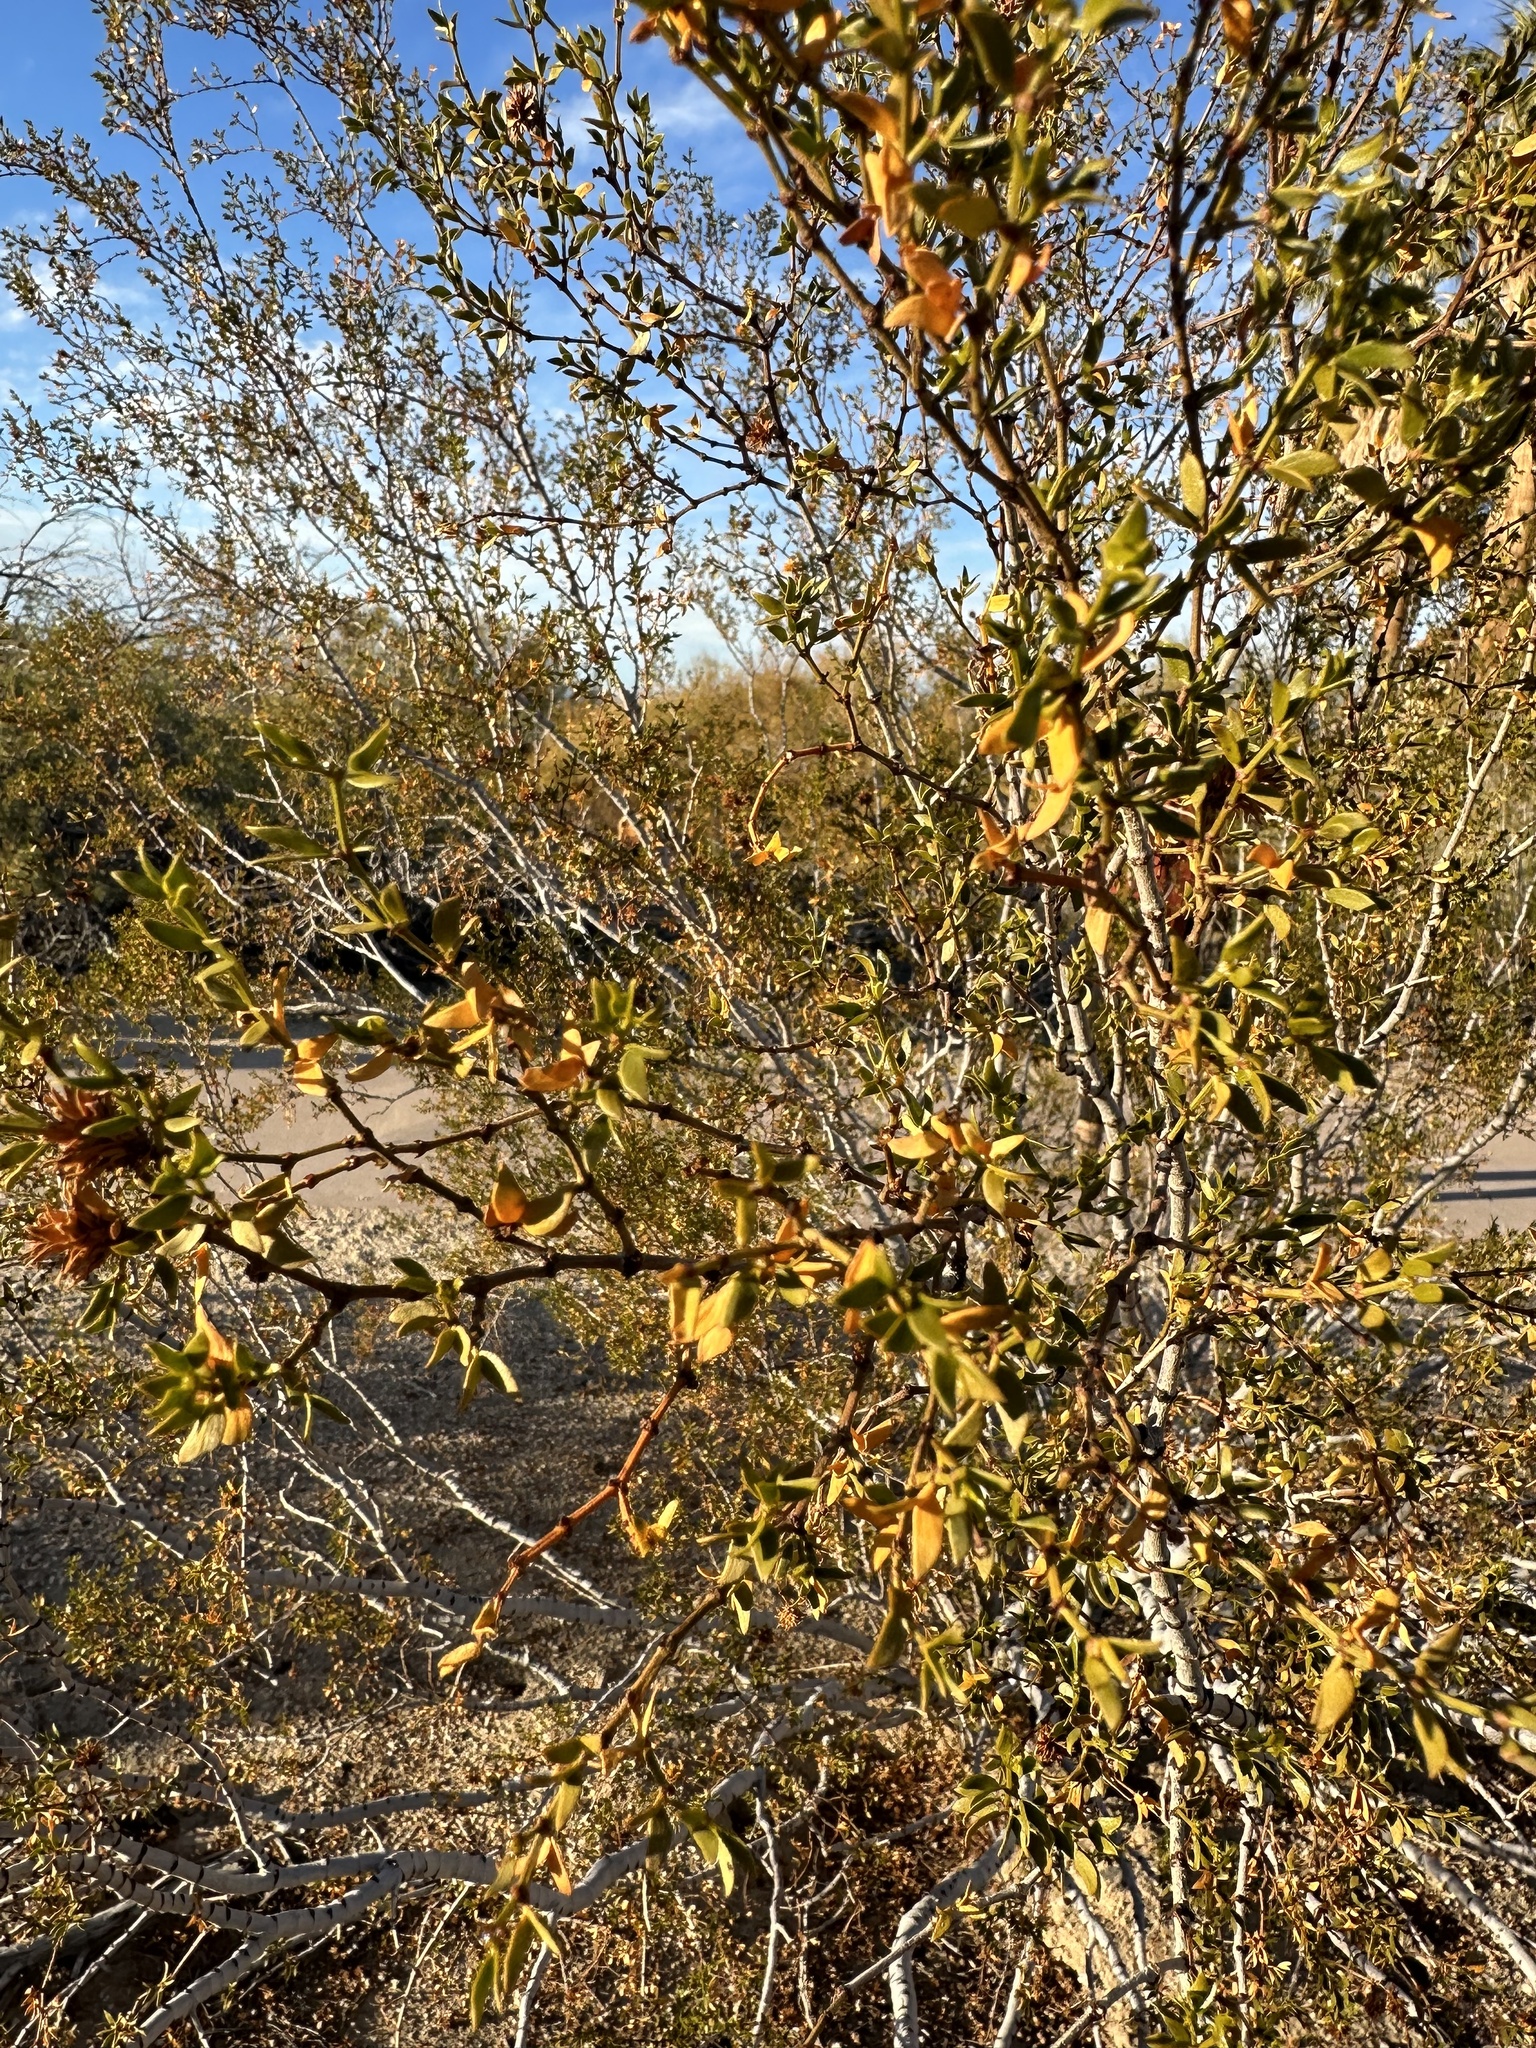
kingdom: Plantae
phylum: Tracheophyta
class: Magnoliopsida
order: Zygophyllales
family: Zygophyllaceae
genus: Larrea
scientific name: Larrea tridentata
